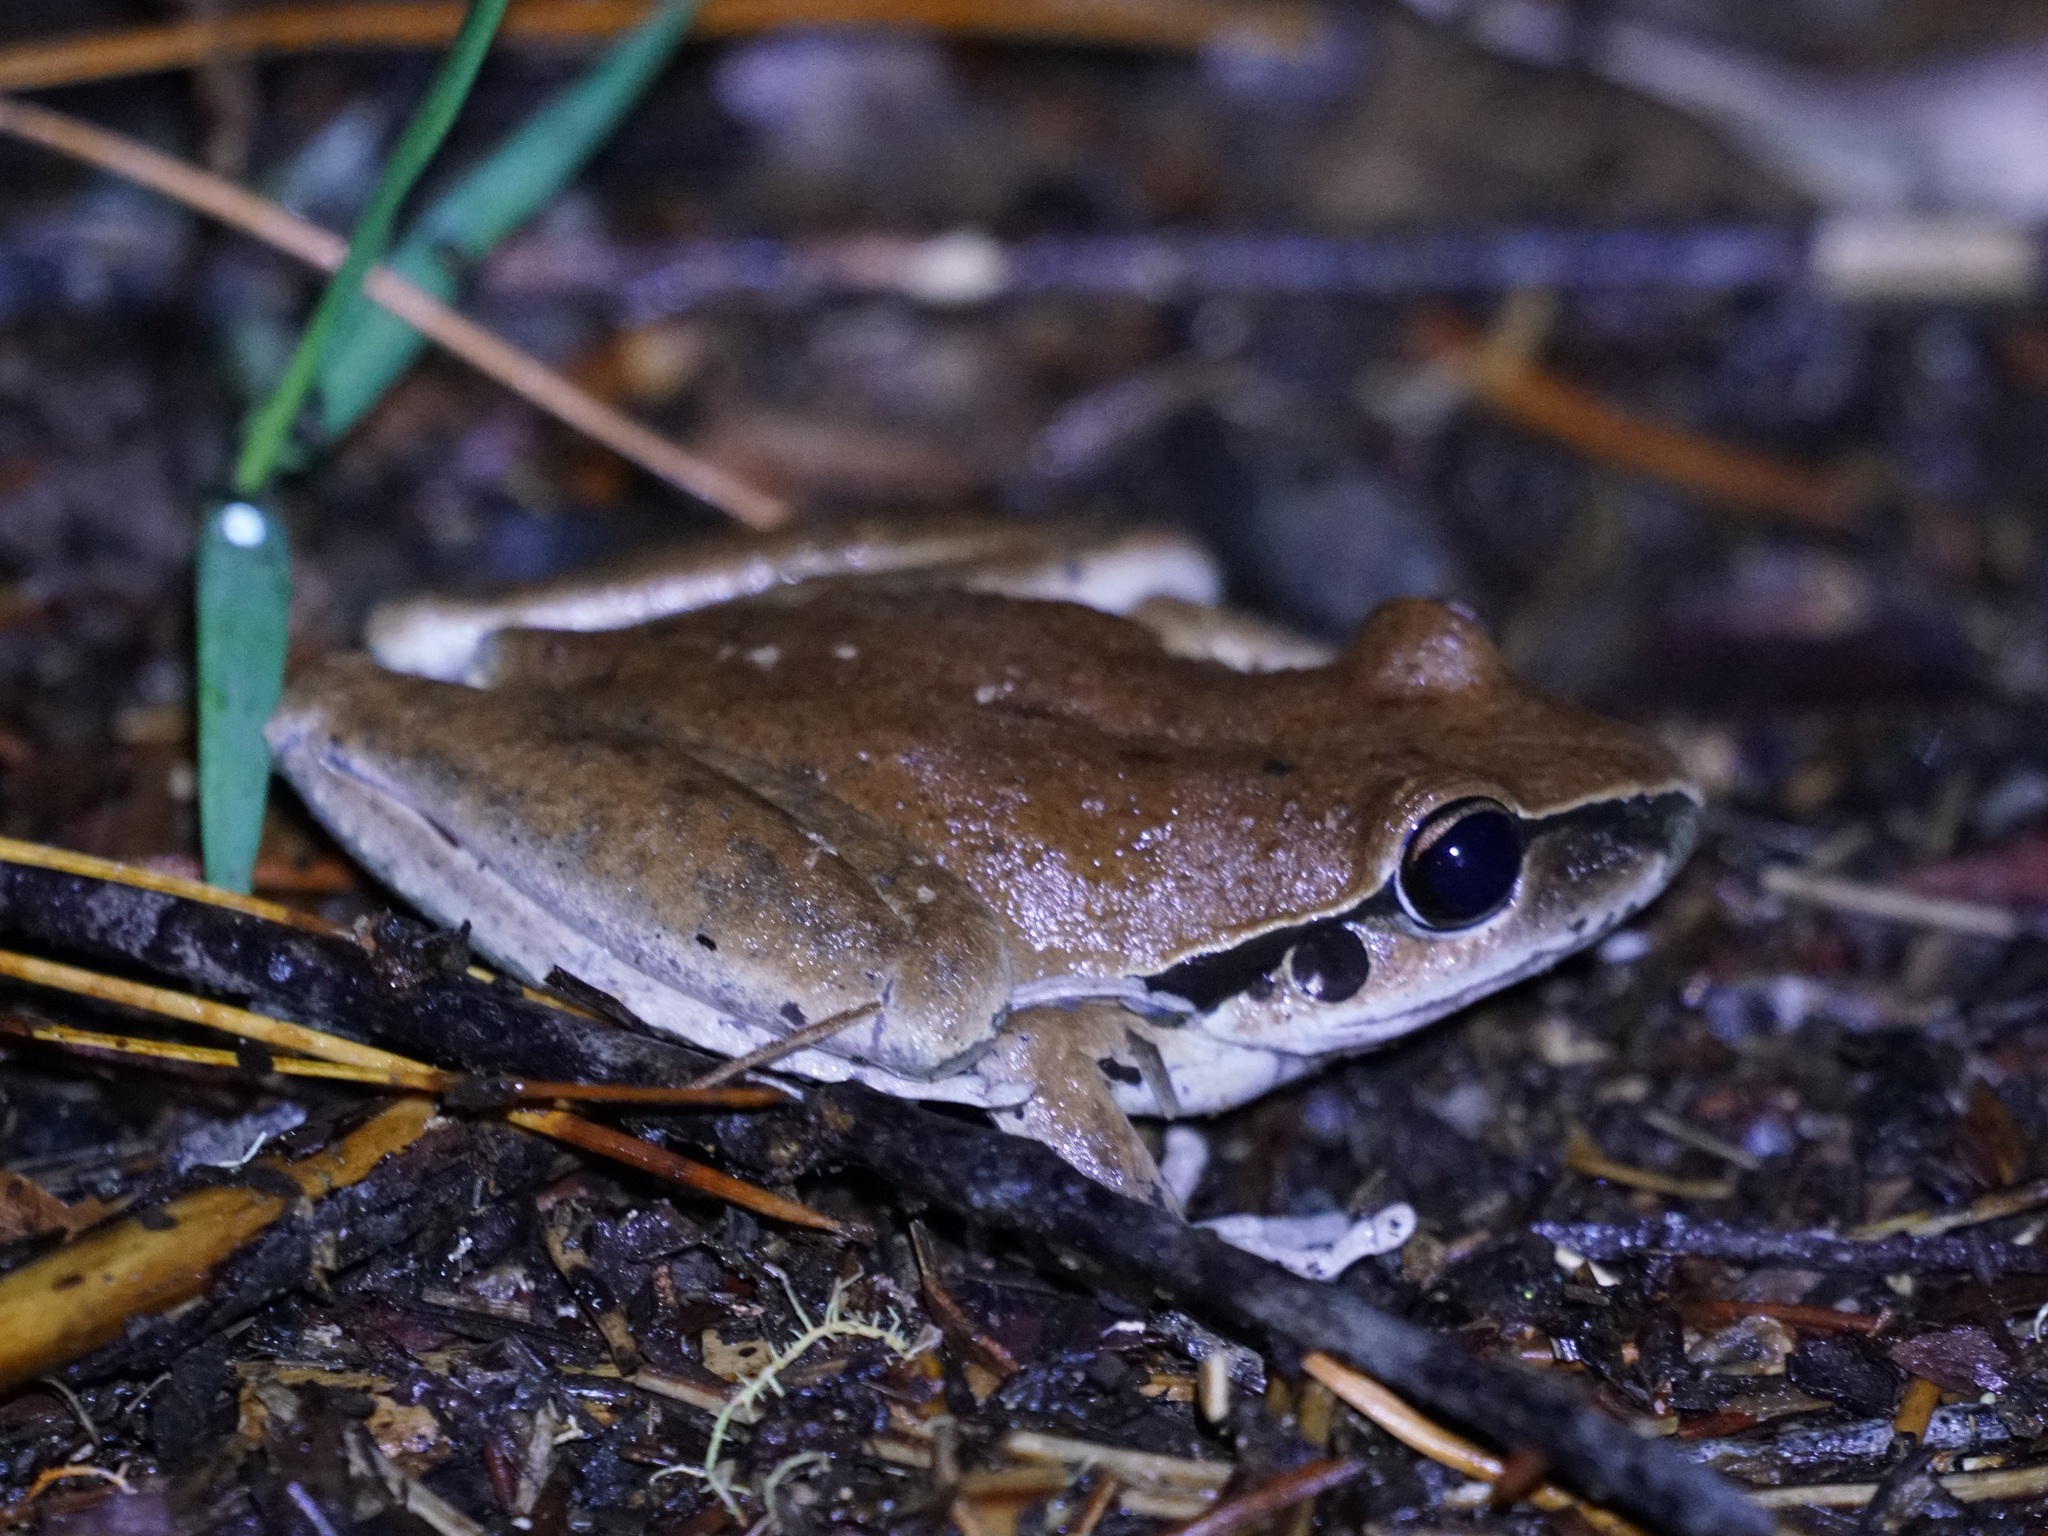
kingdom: Animalia
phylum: Chordata
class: Amphibia
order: Anura
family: Pelodryadidae
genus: Ranoidea
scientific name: Ranoidea wilcoxii
